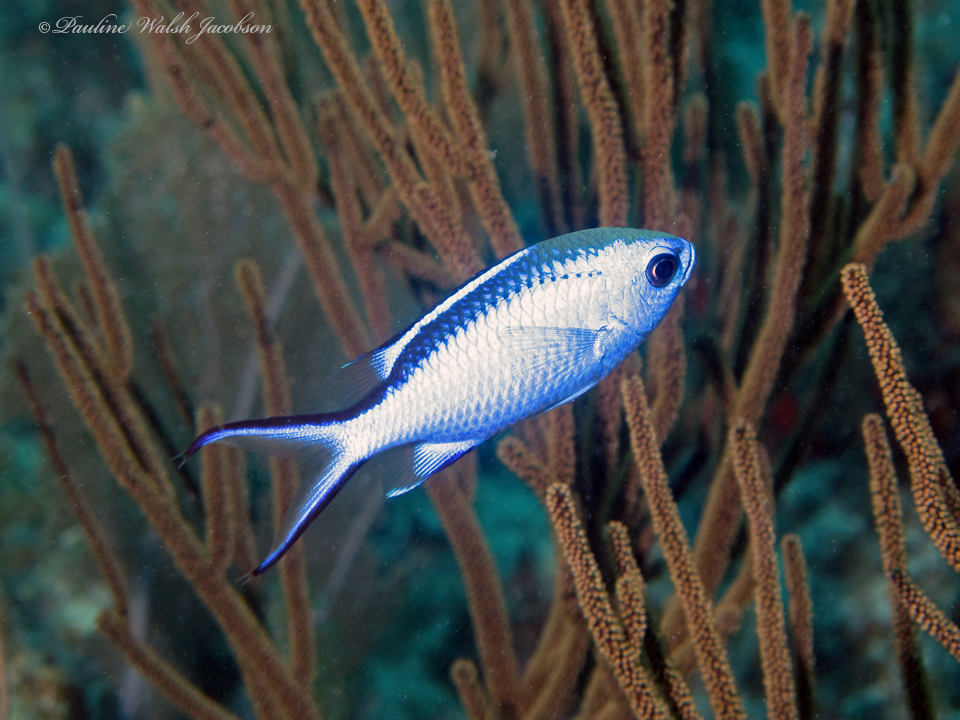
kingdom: Animalia
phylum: Chordata
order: Perciformes
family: Pomacentridae
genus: Chromis
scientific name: Chromis cyanea
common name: Blue chromis
